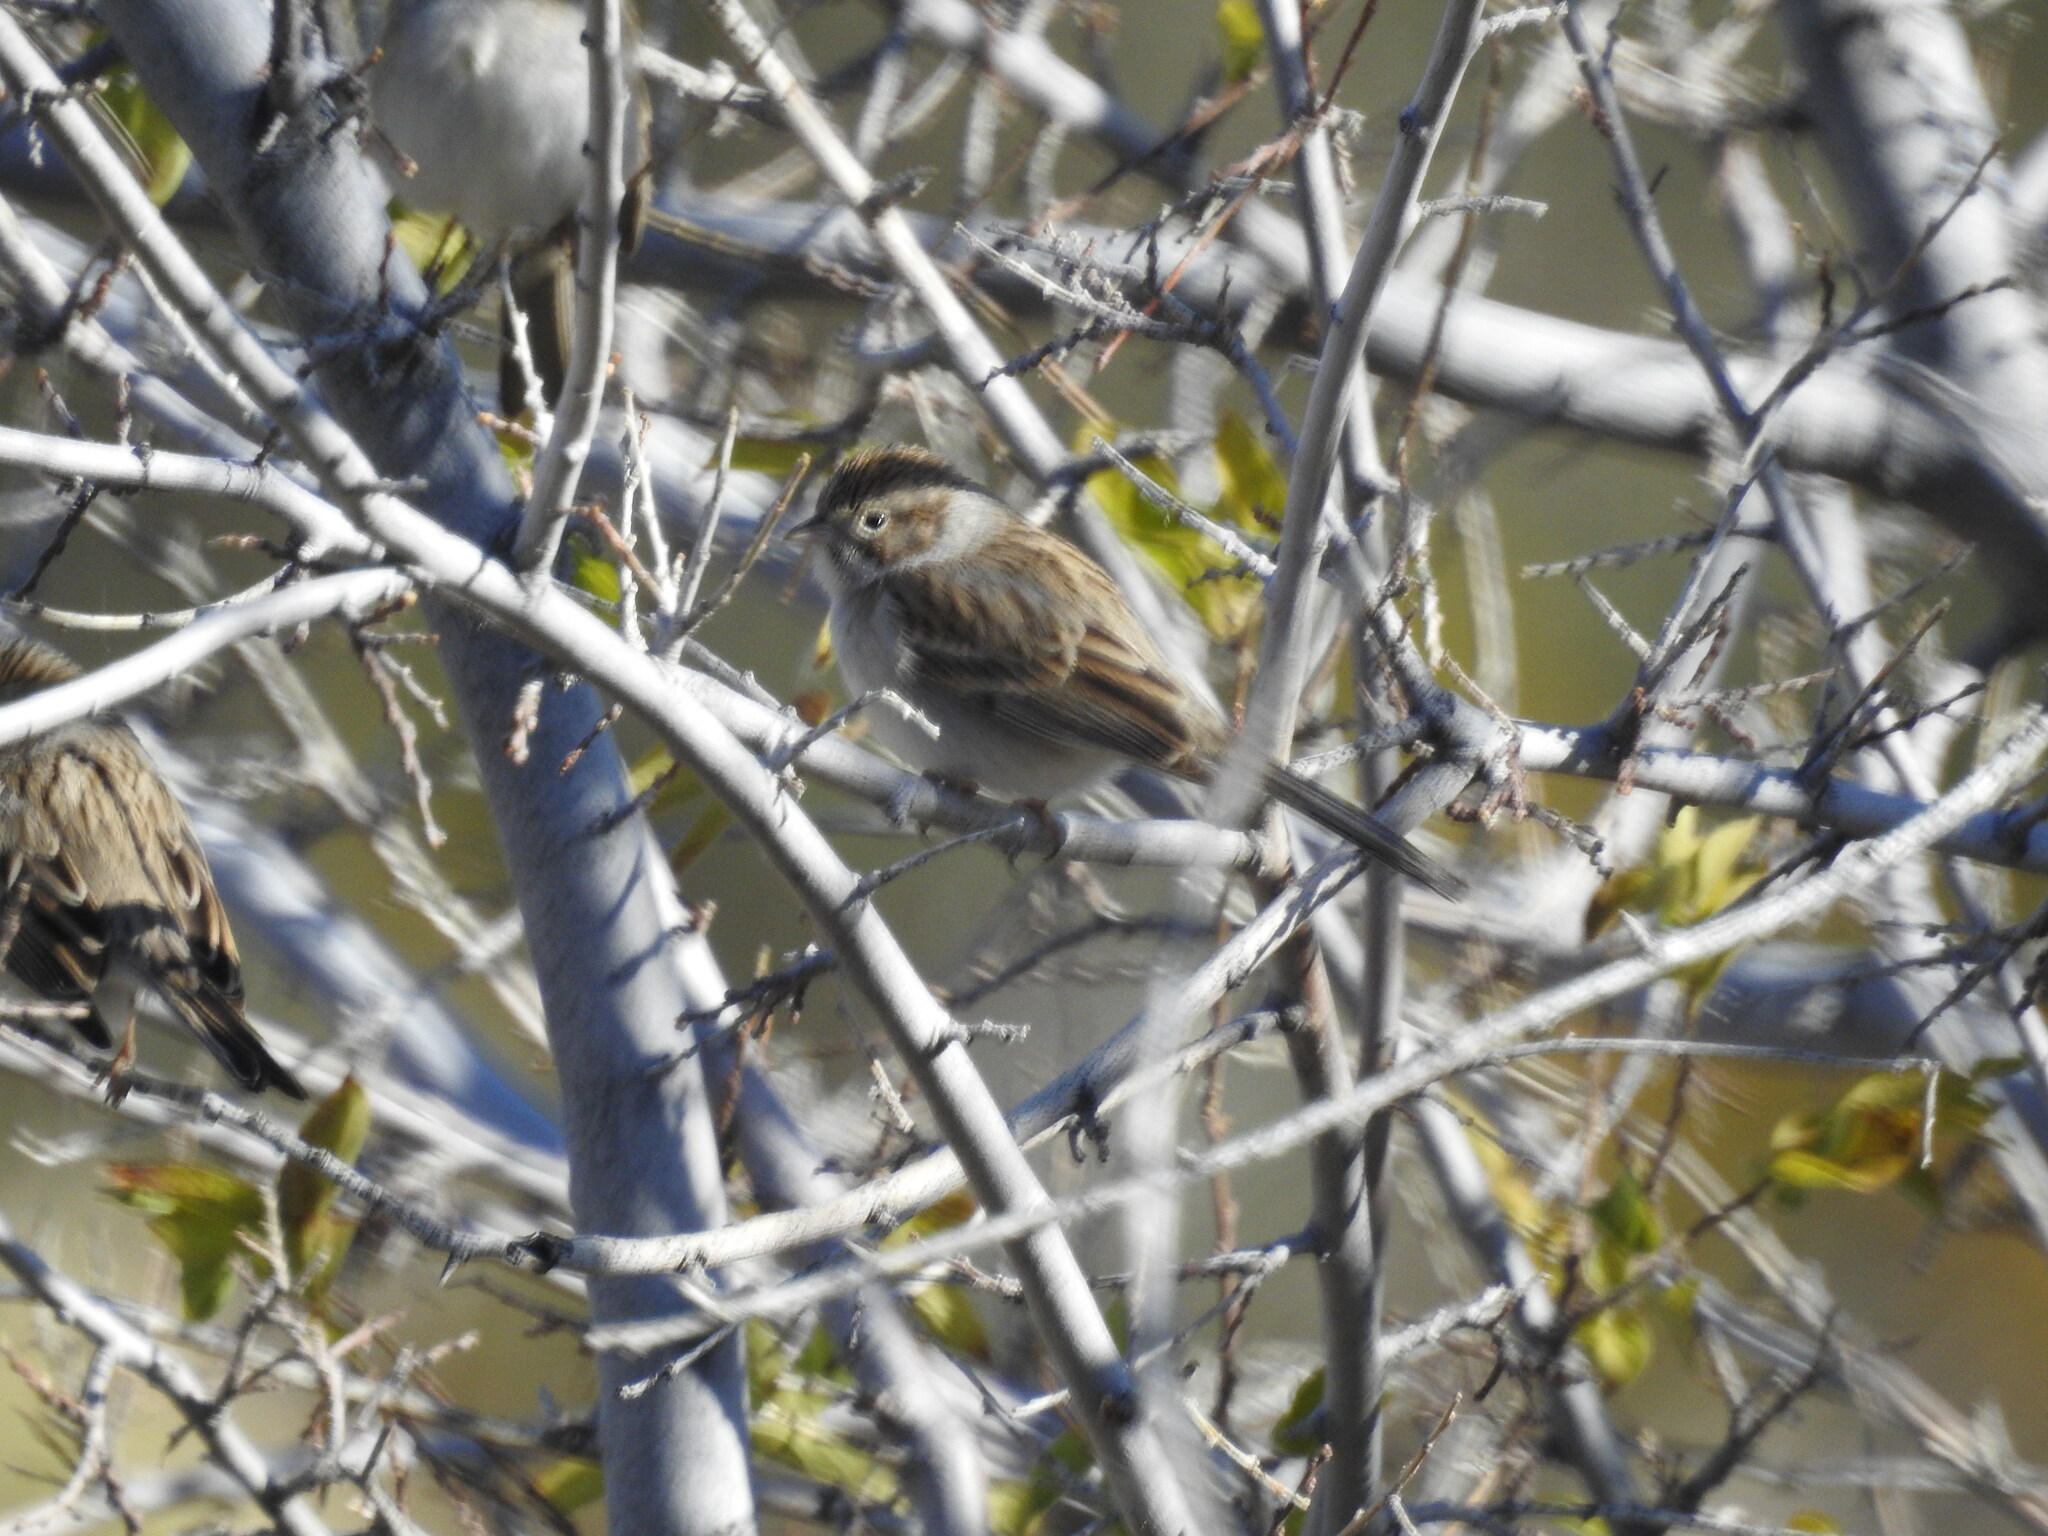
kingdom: Animalia
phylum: Chordata
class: Aves
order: Passeriformes
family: Passerellidae
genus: Spizella
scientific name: Spizella breweri
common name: Brewer's sparrow
